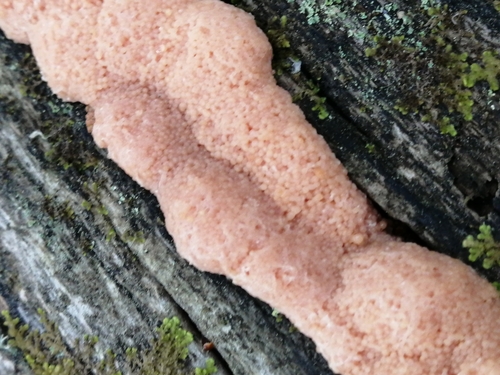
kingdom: Protozoa
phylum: Mycetozoa
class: Myxomycetes
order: Cribrariales
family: Tubiferaceae
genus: Tubifera
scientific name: Tubifera
